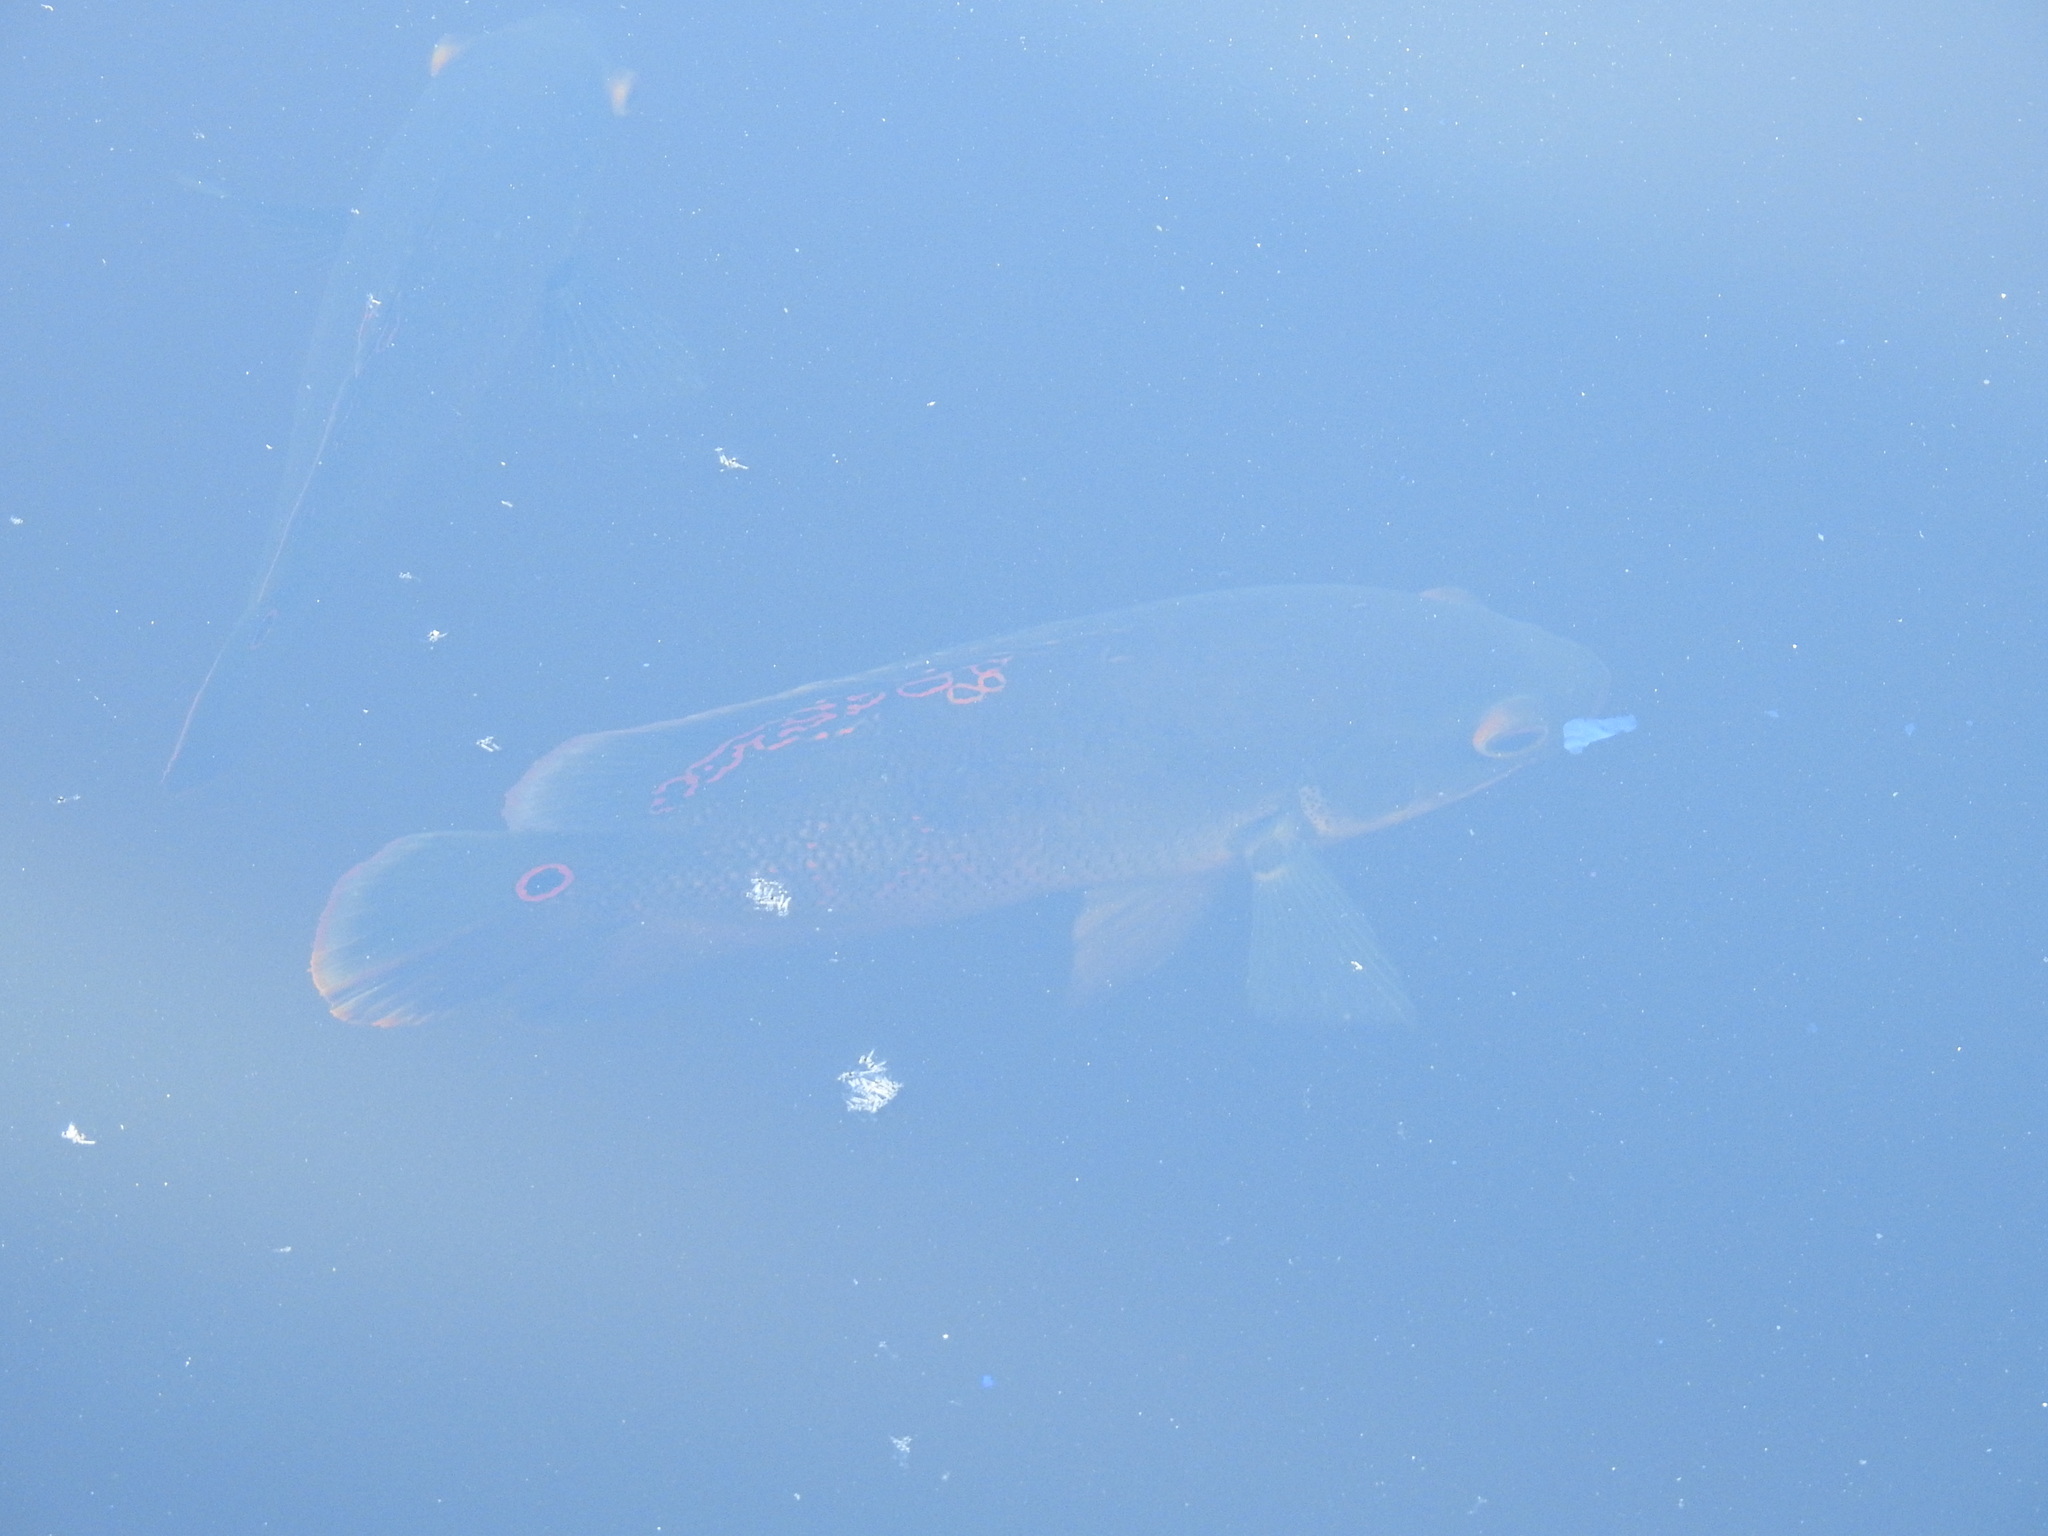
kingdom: Animalia
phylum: Chordata
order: Perciformes
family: Cichlidae
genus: Astronotus
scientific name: Astronotus ocellatus
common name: Oscar
